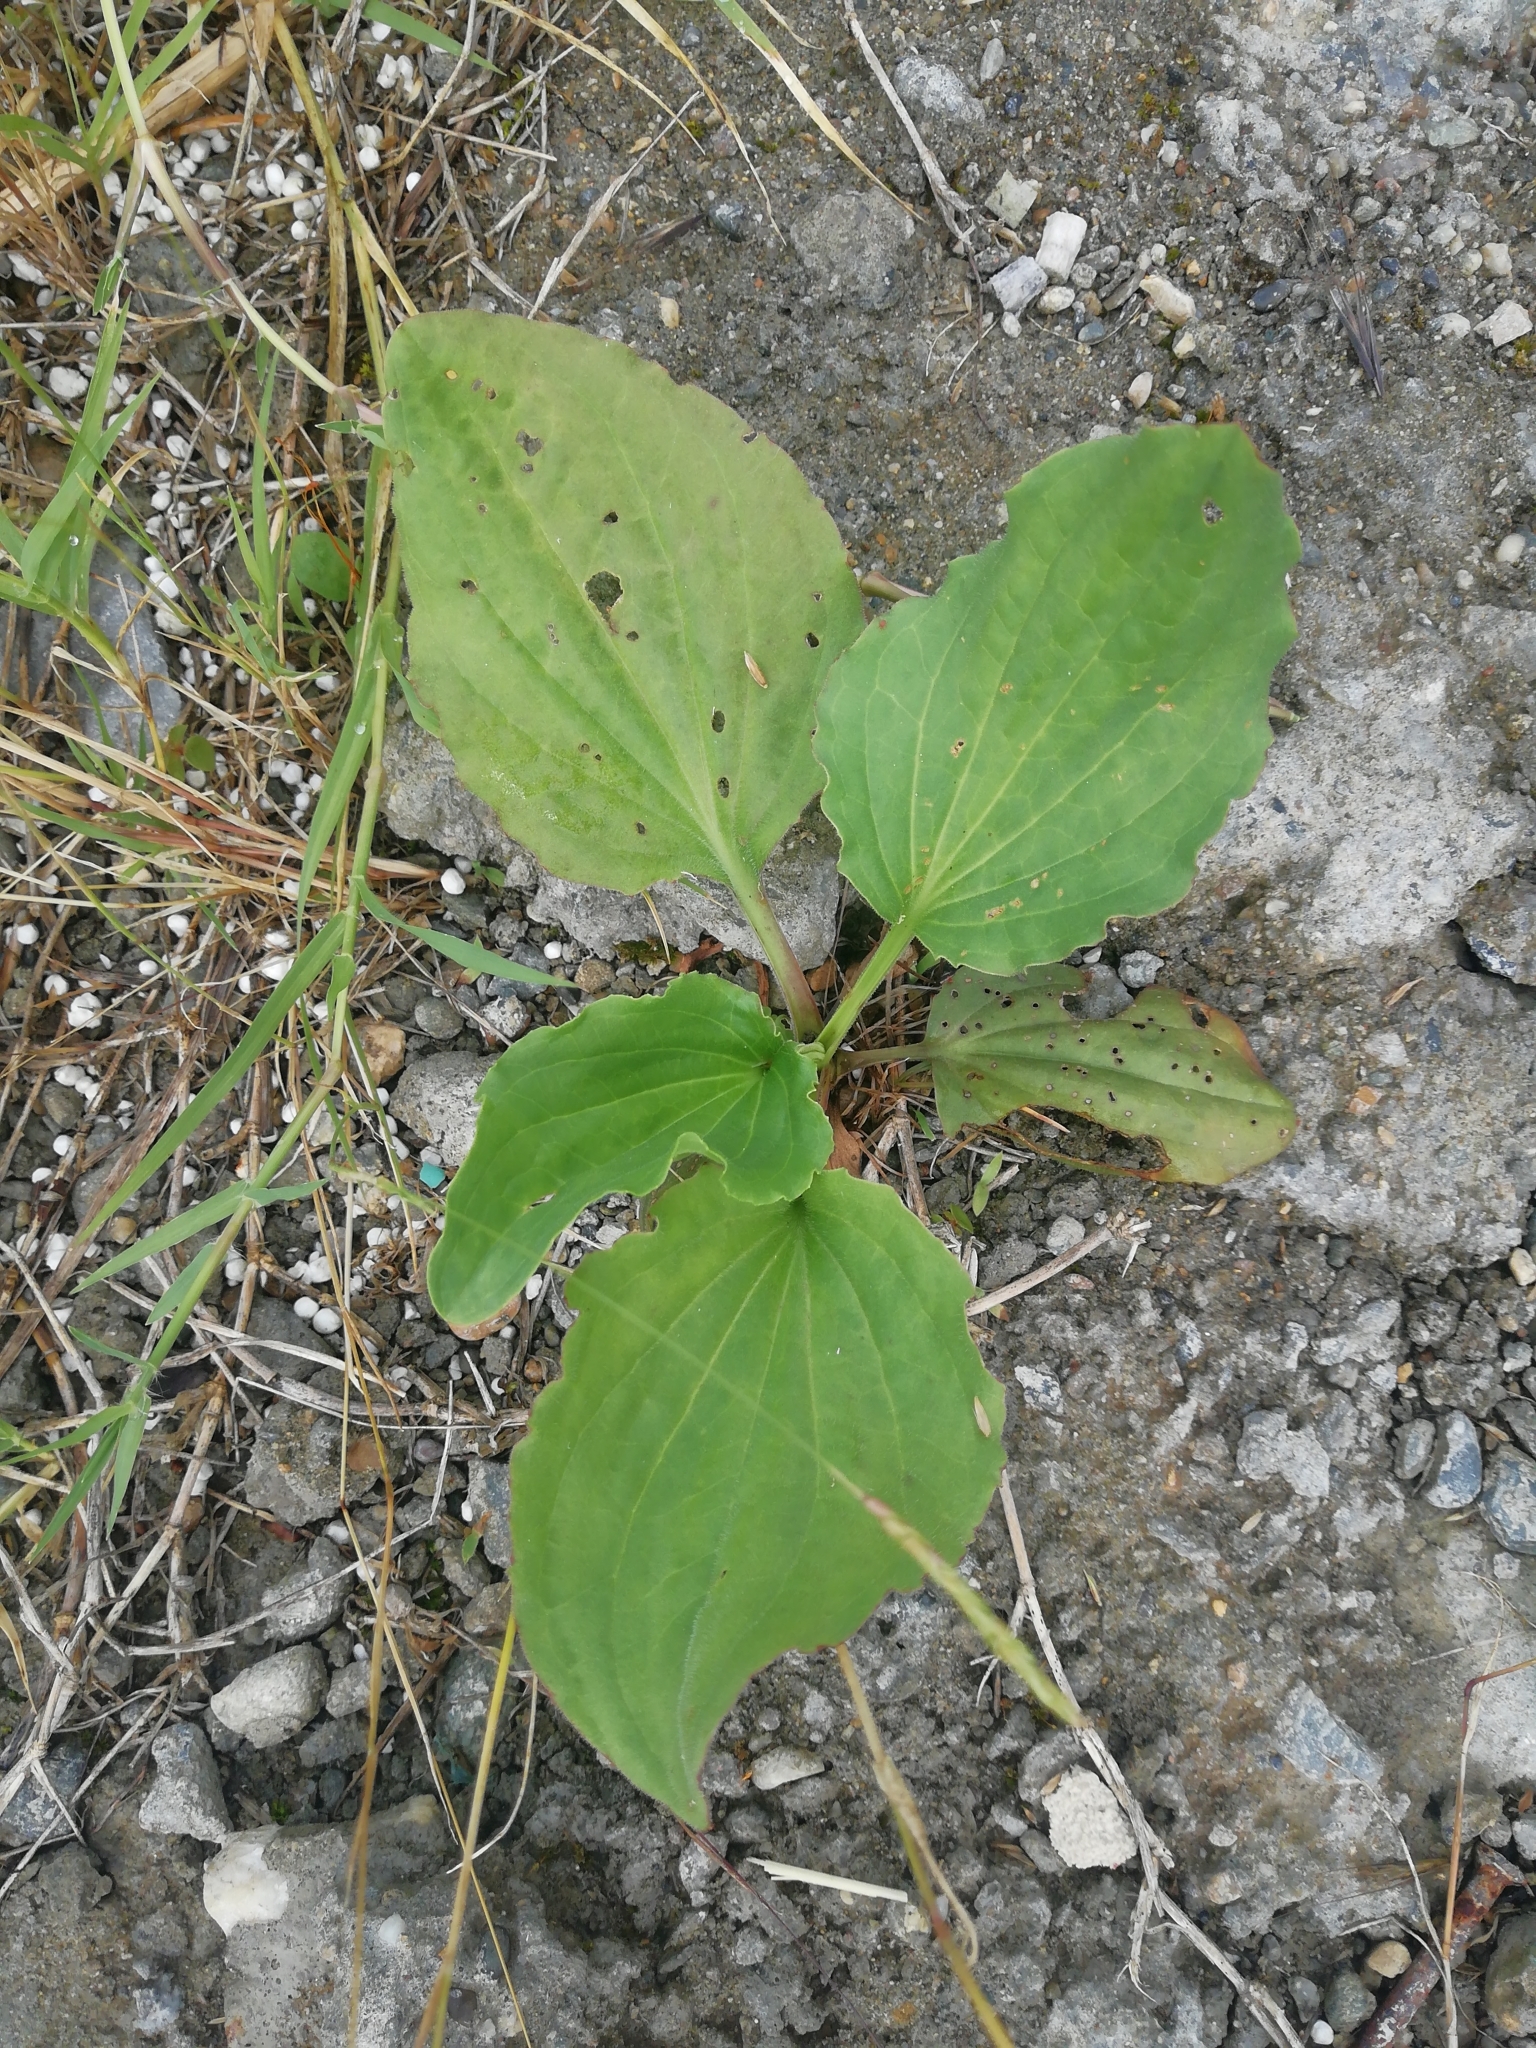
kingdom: Plantae
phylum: Tracheophyta
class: Magnoliopsida
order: Lamiales
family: Plantaginaceae
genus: Plantago
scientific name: Plantago major
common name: Common plantain
